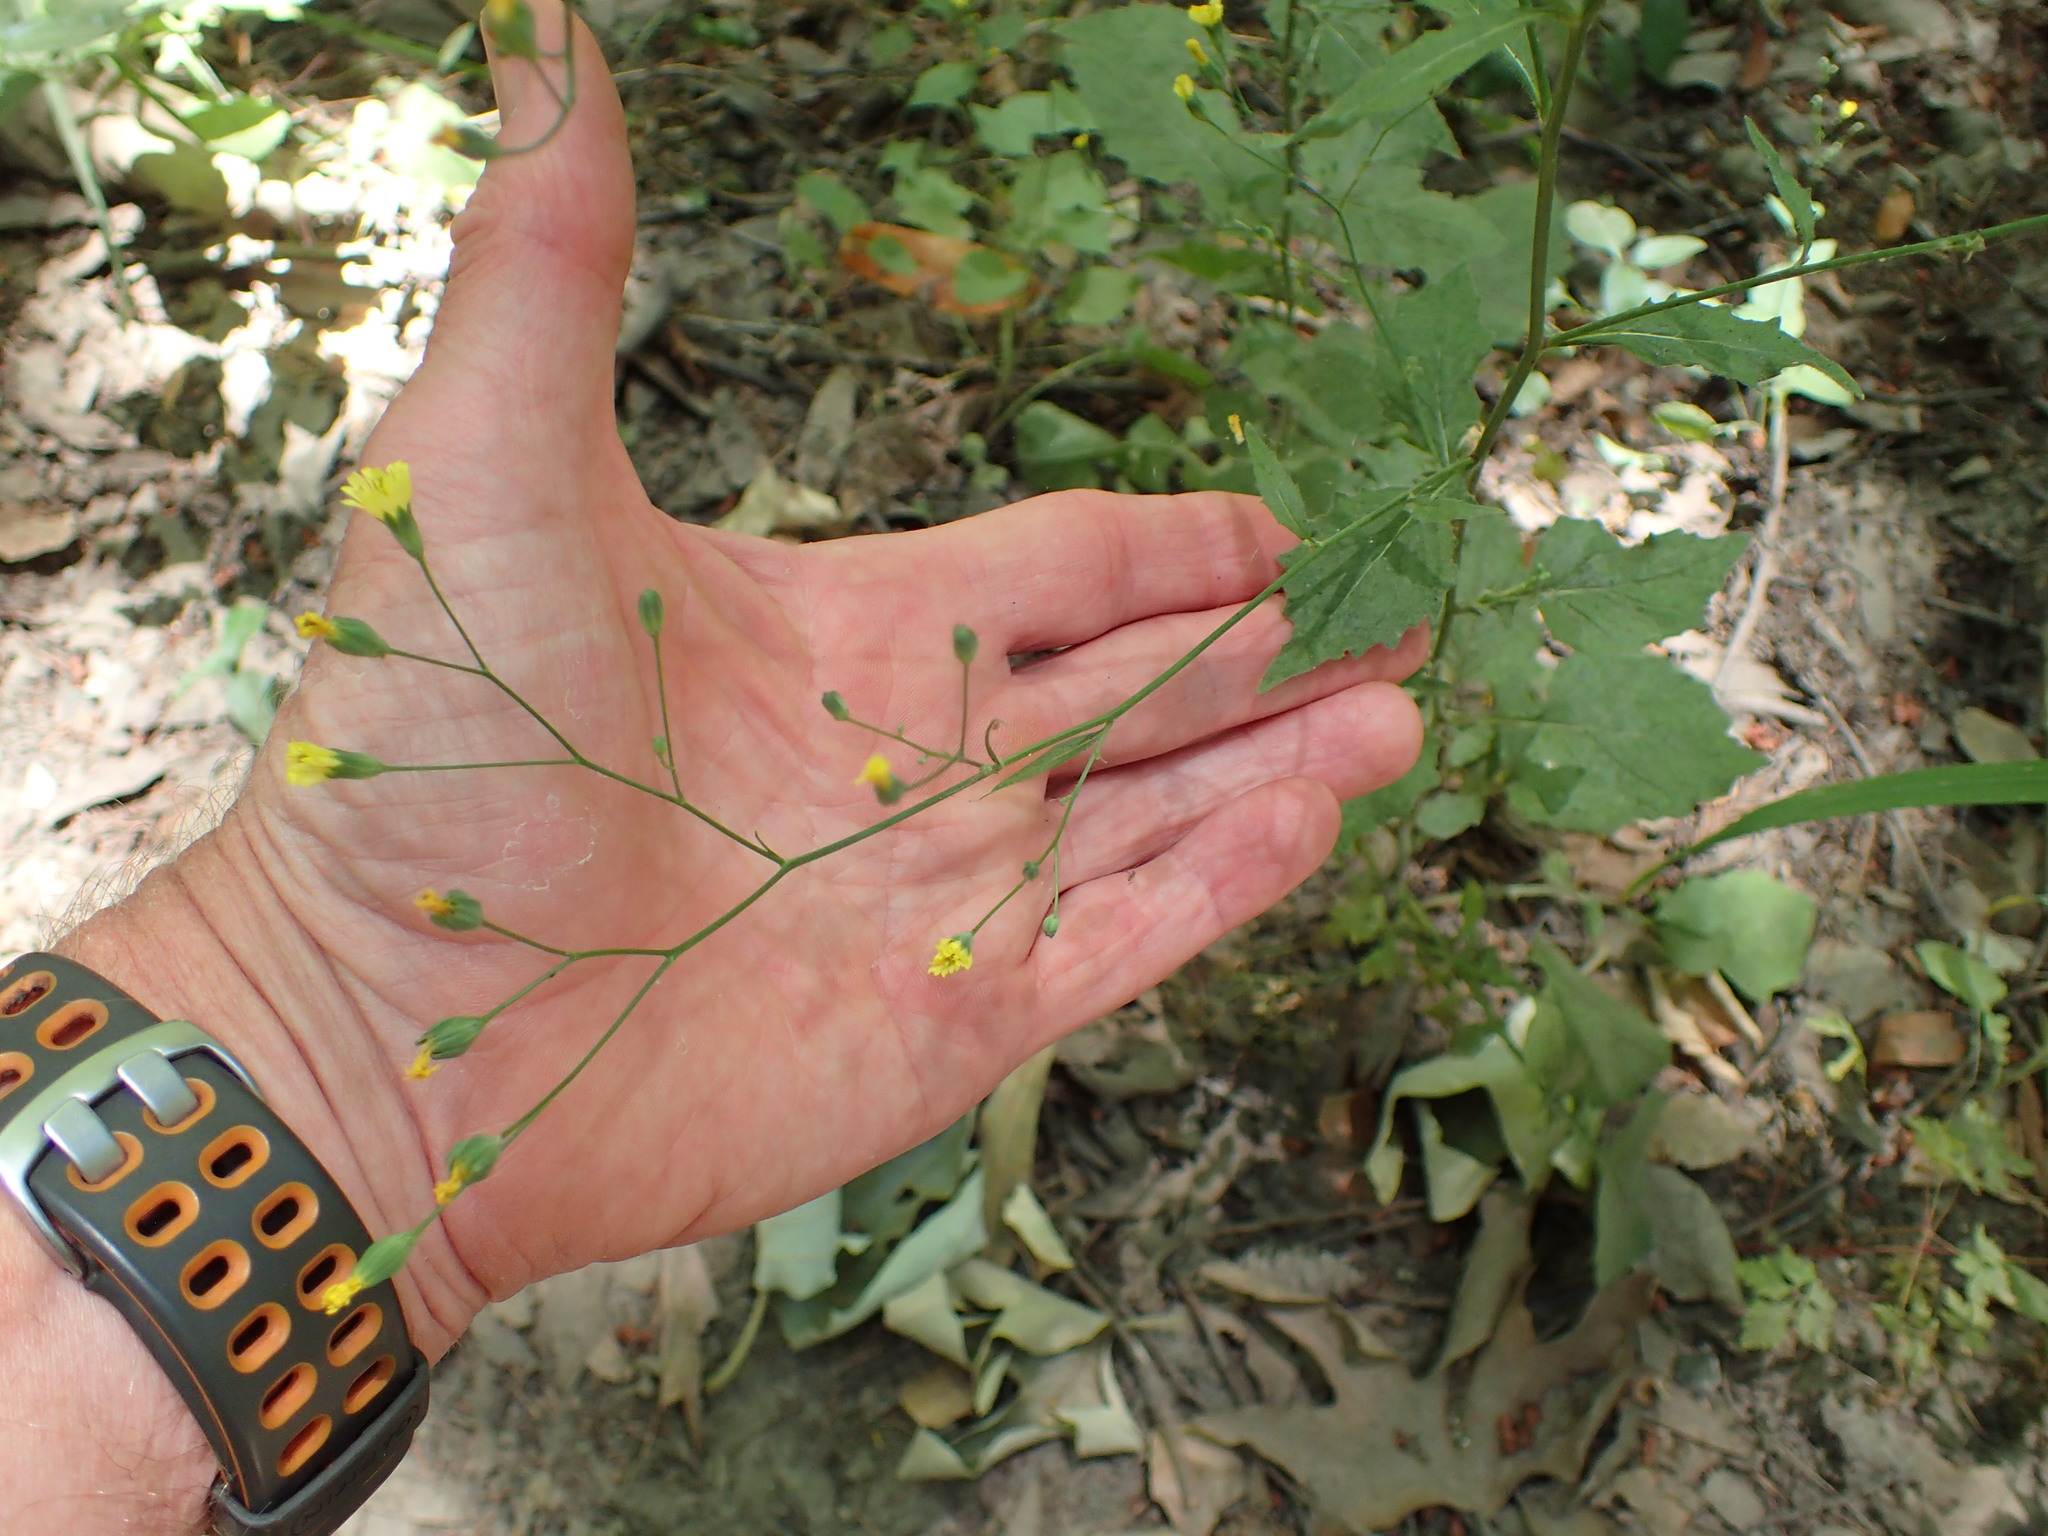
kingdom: Plantae
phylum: Tracheophyta
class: Magnoliopsida
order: Asterales
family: Asteraceae
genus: Lapsana
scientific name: Lapsana communis
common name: Nipplewort
